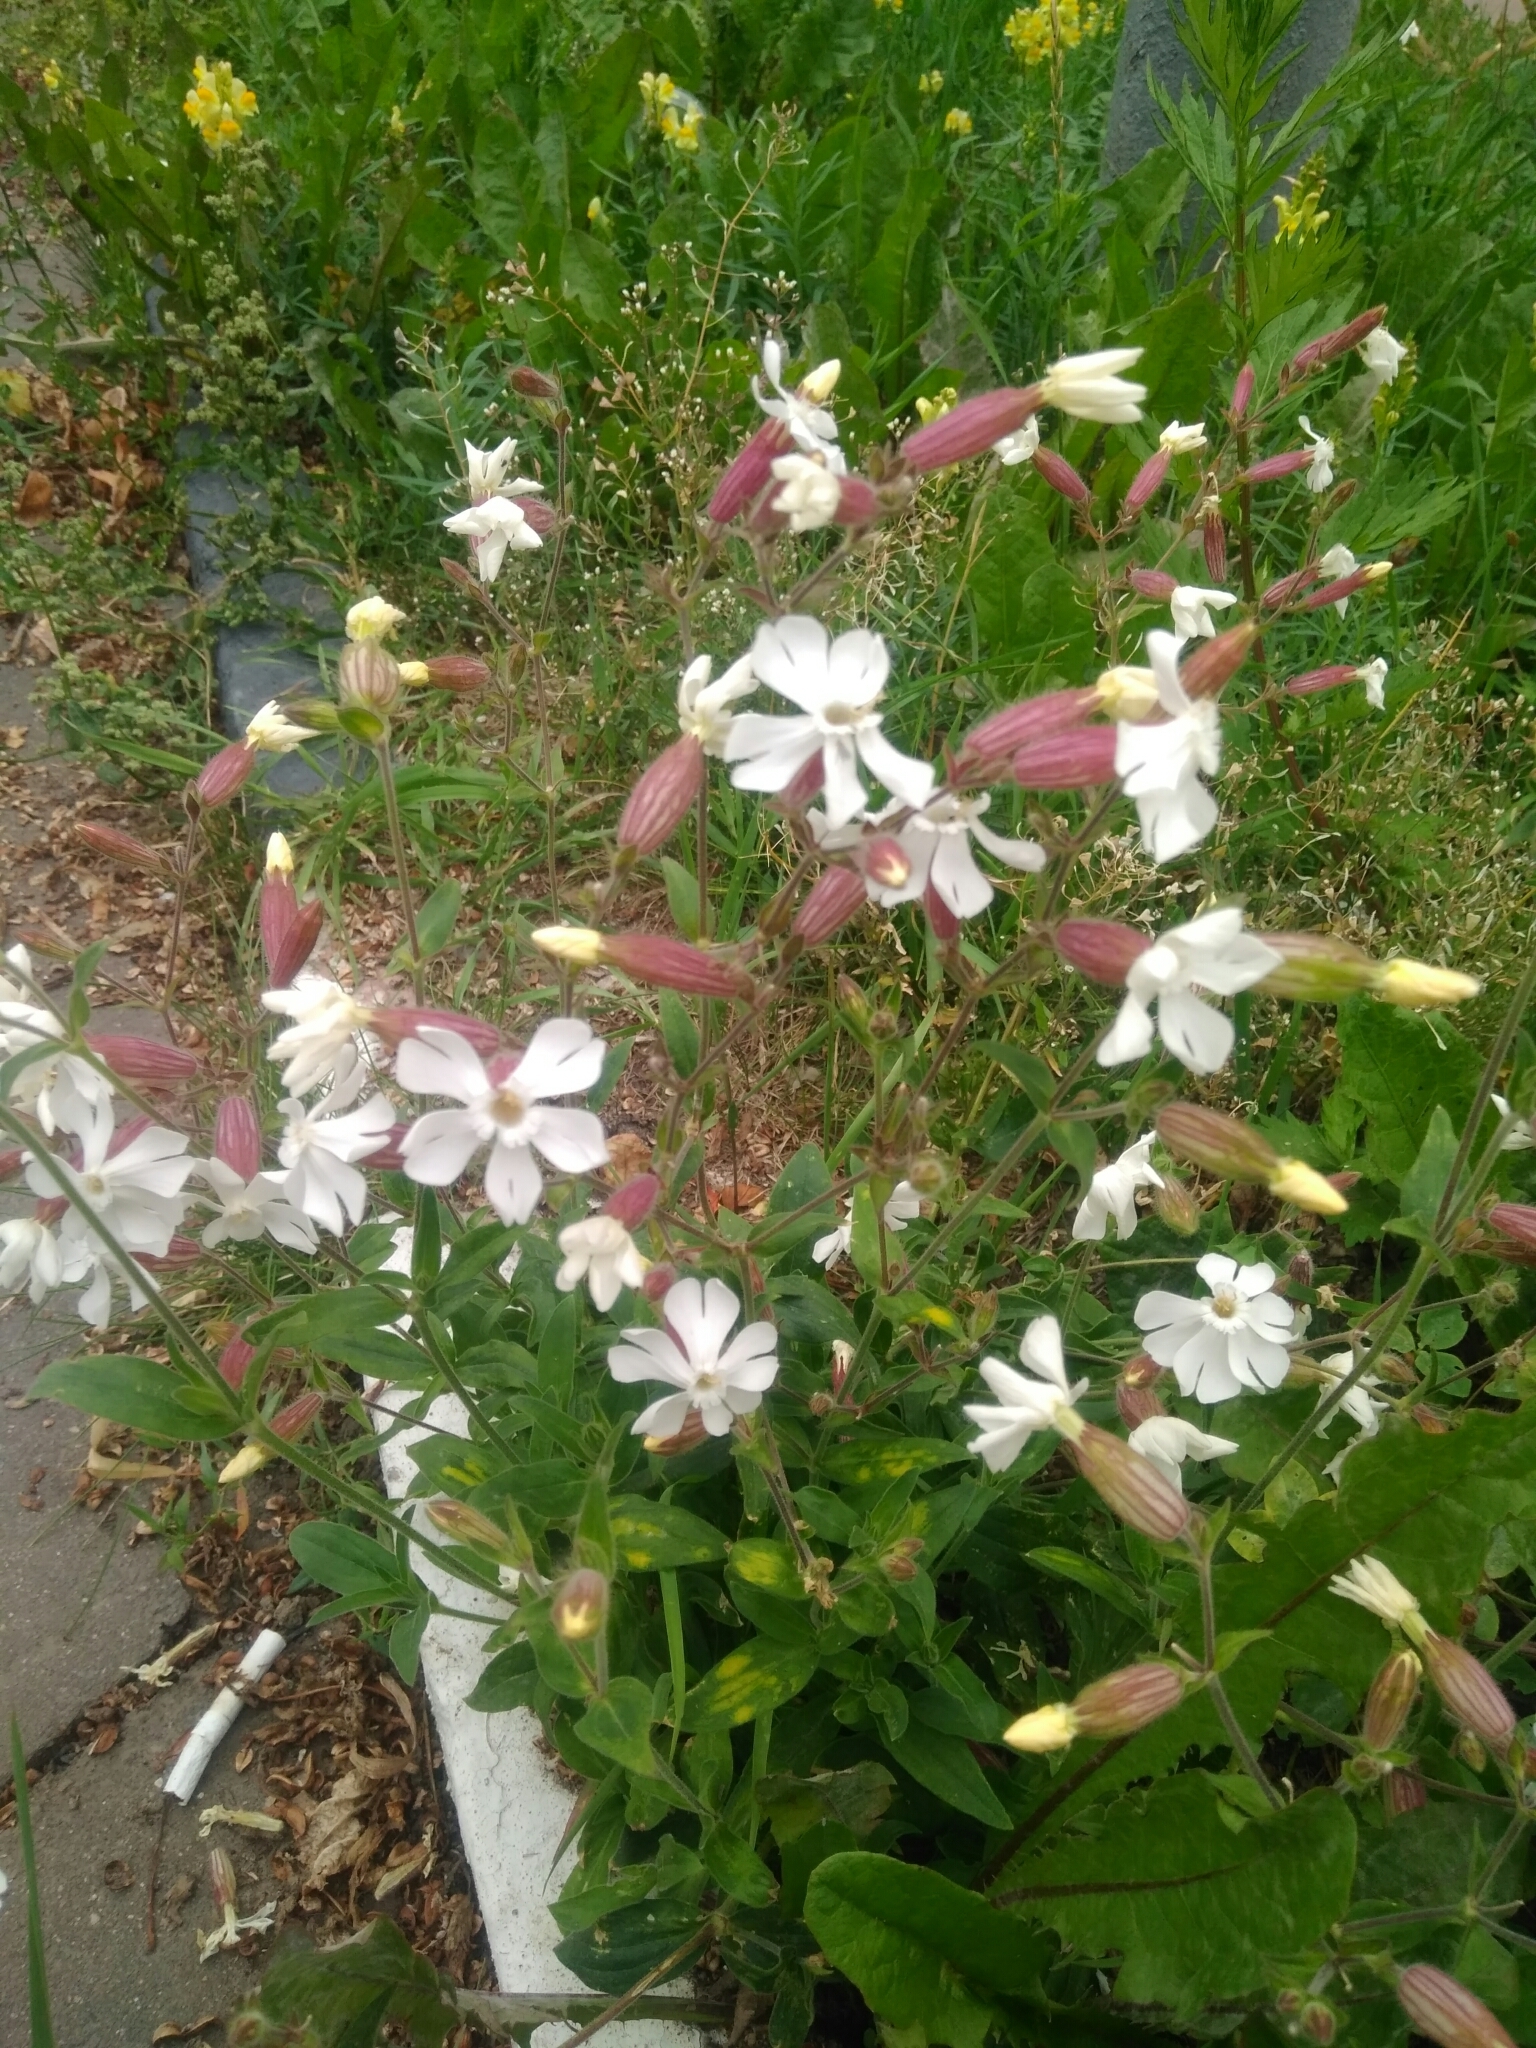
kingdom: Plantae
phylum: Tracheophyta
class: Magnoliopsida
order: Caryophyllales
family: Caryophyllaceae
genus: Silene
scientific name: Silene latifolia
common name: White campion
